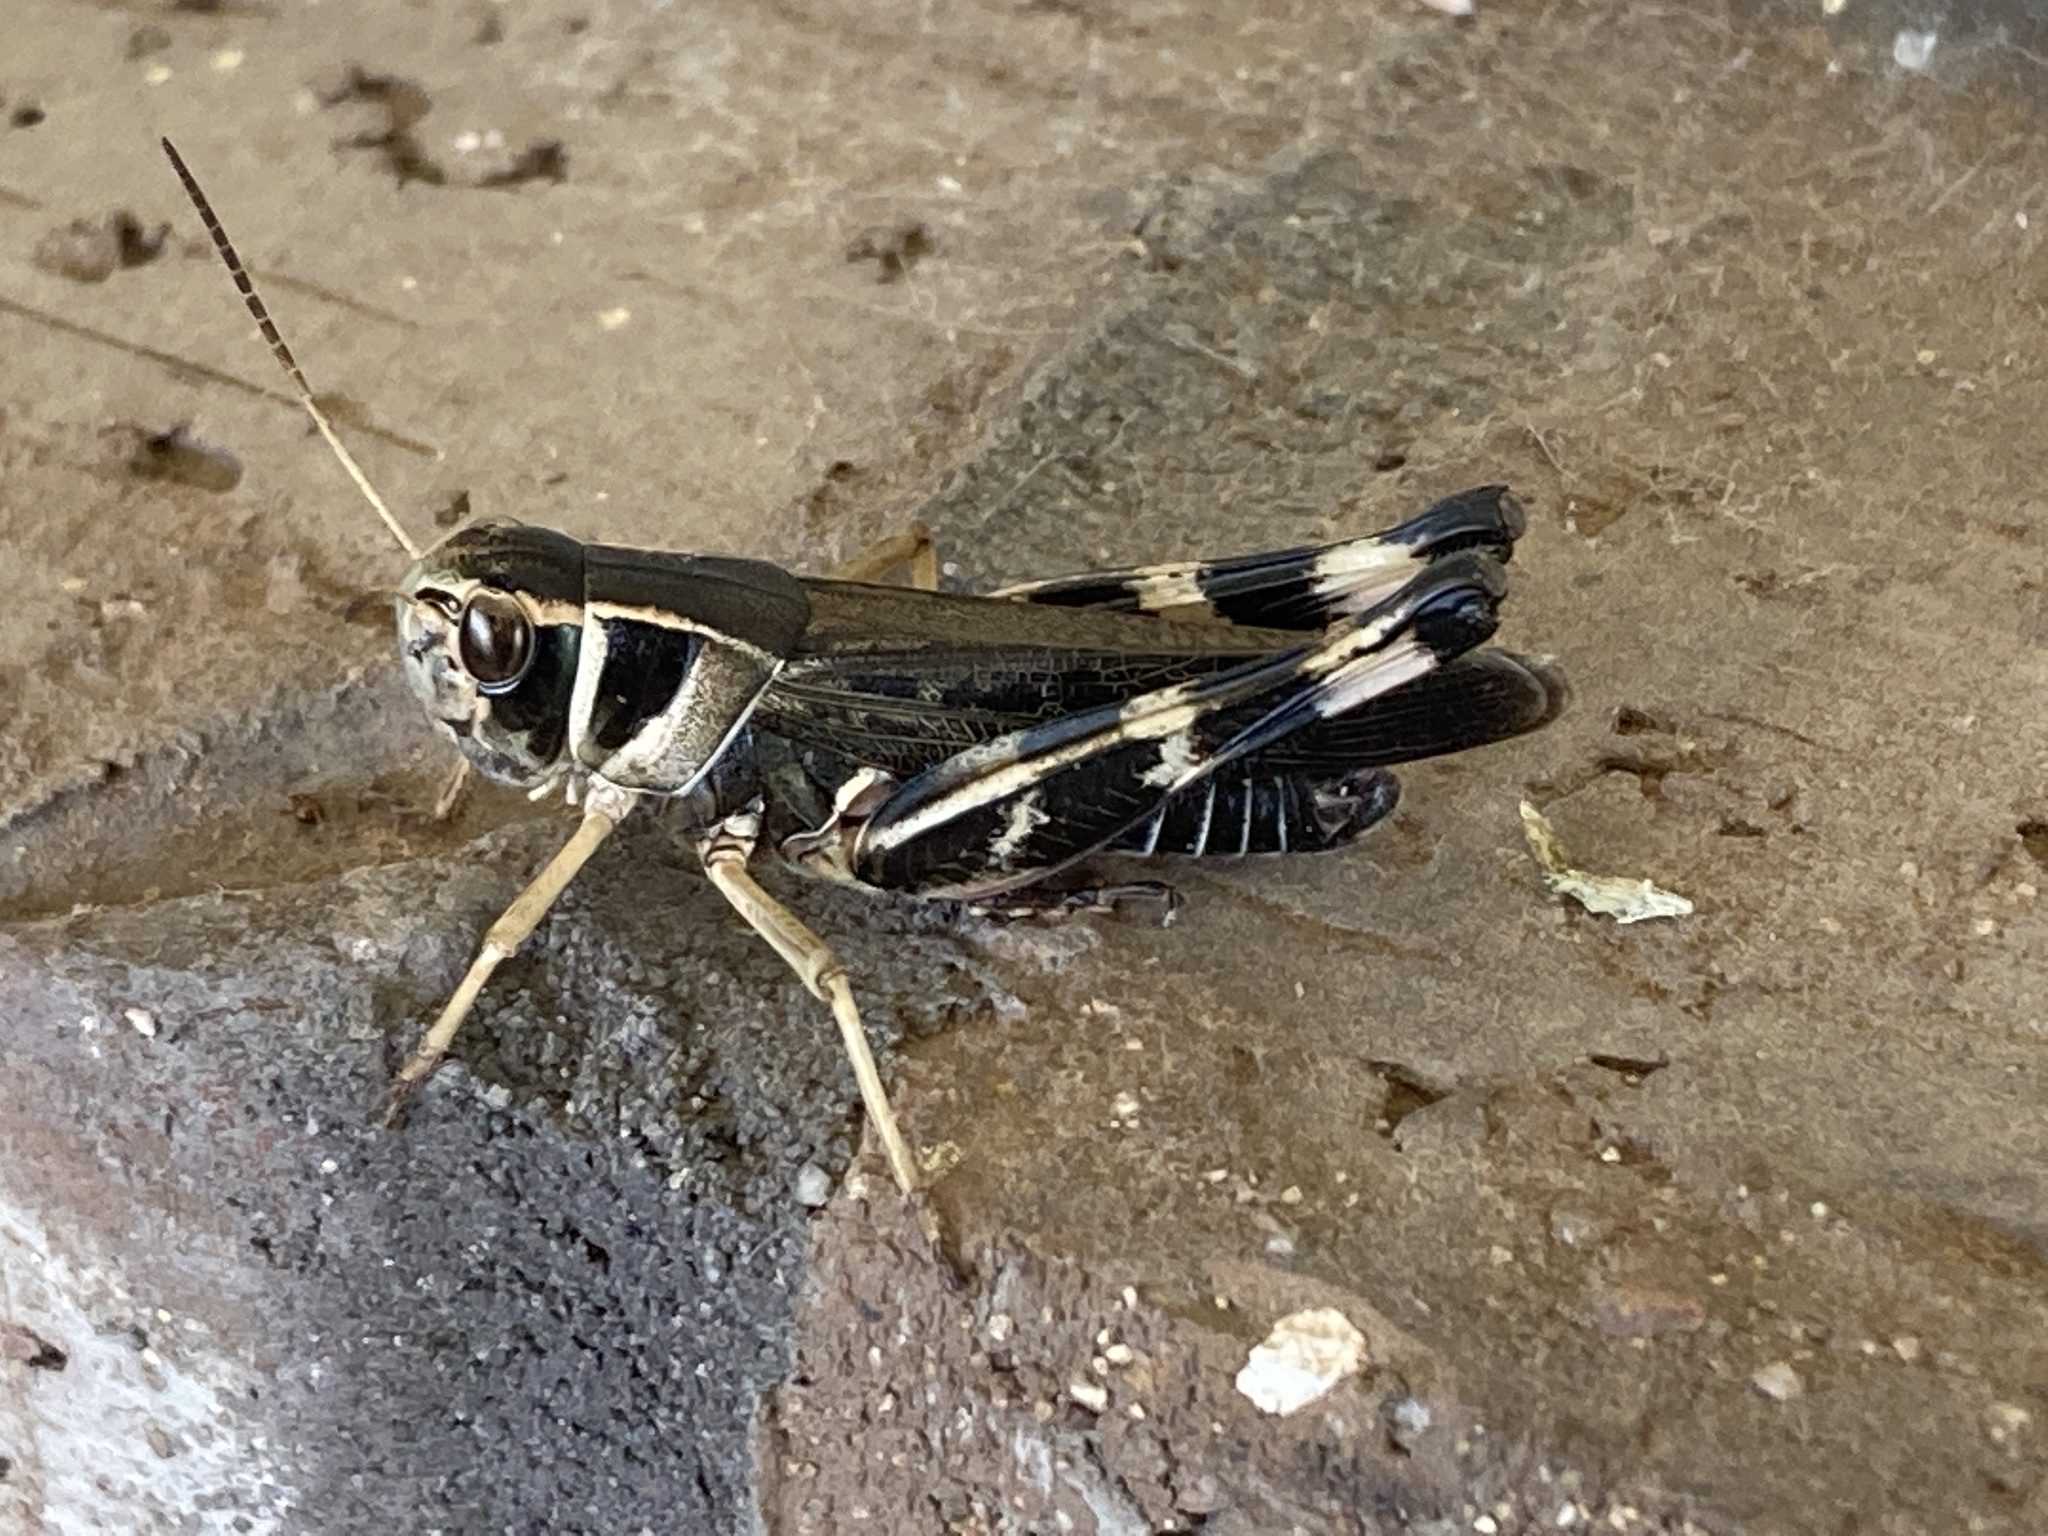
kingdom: Animalia
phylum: Arthropoda
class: Insecta
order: Orthoptera
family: Acrididae
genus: Boopedon
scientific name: Boopedon gracile
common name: Graceful range grasshopper
